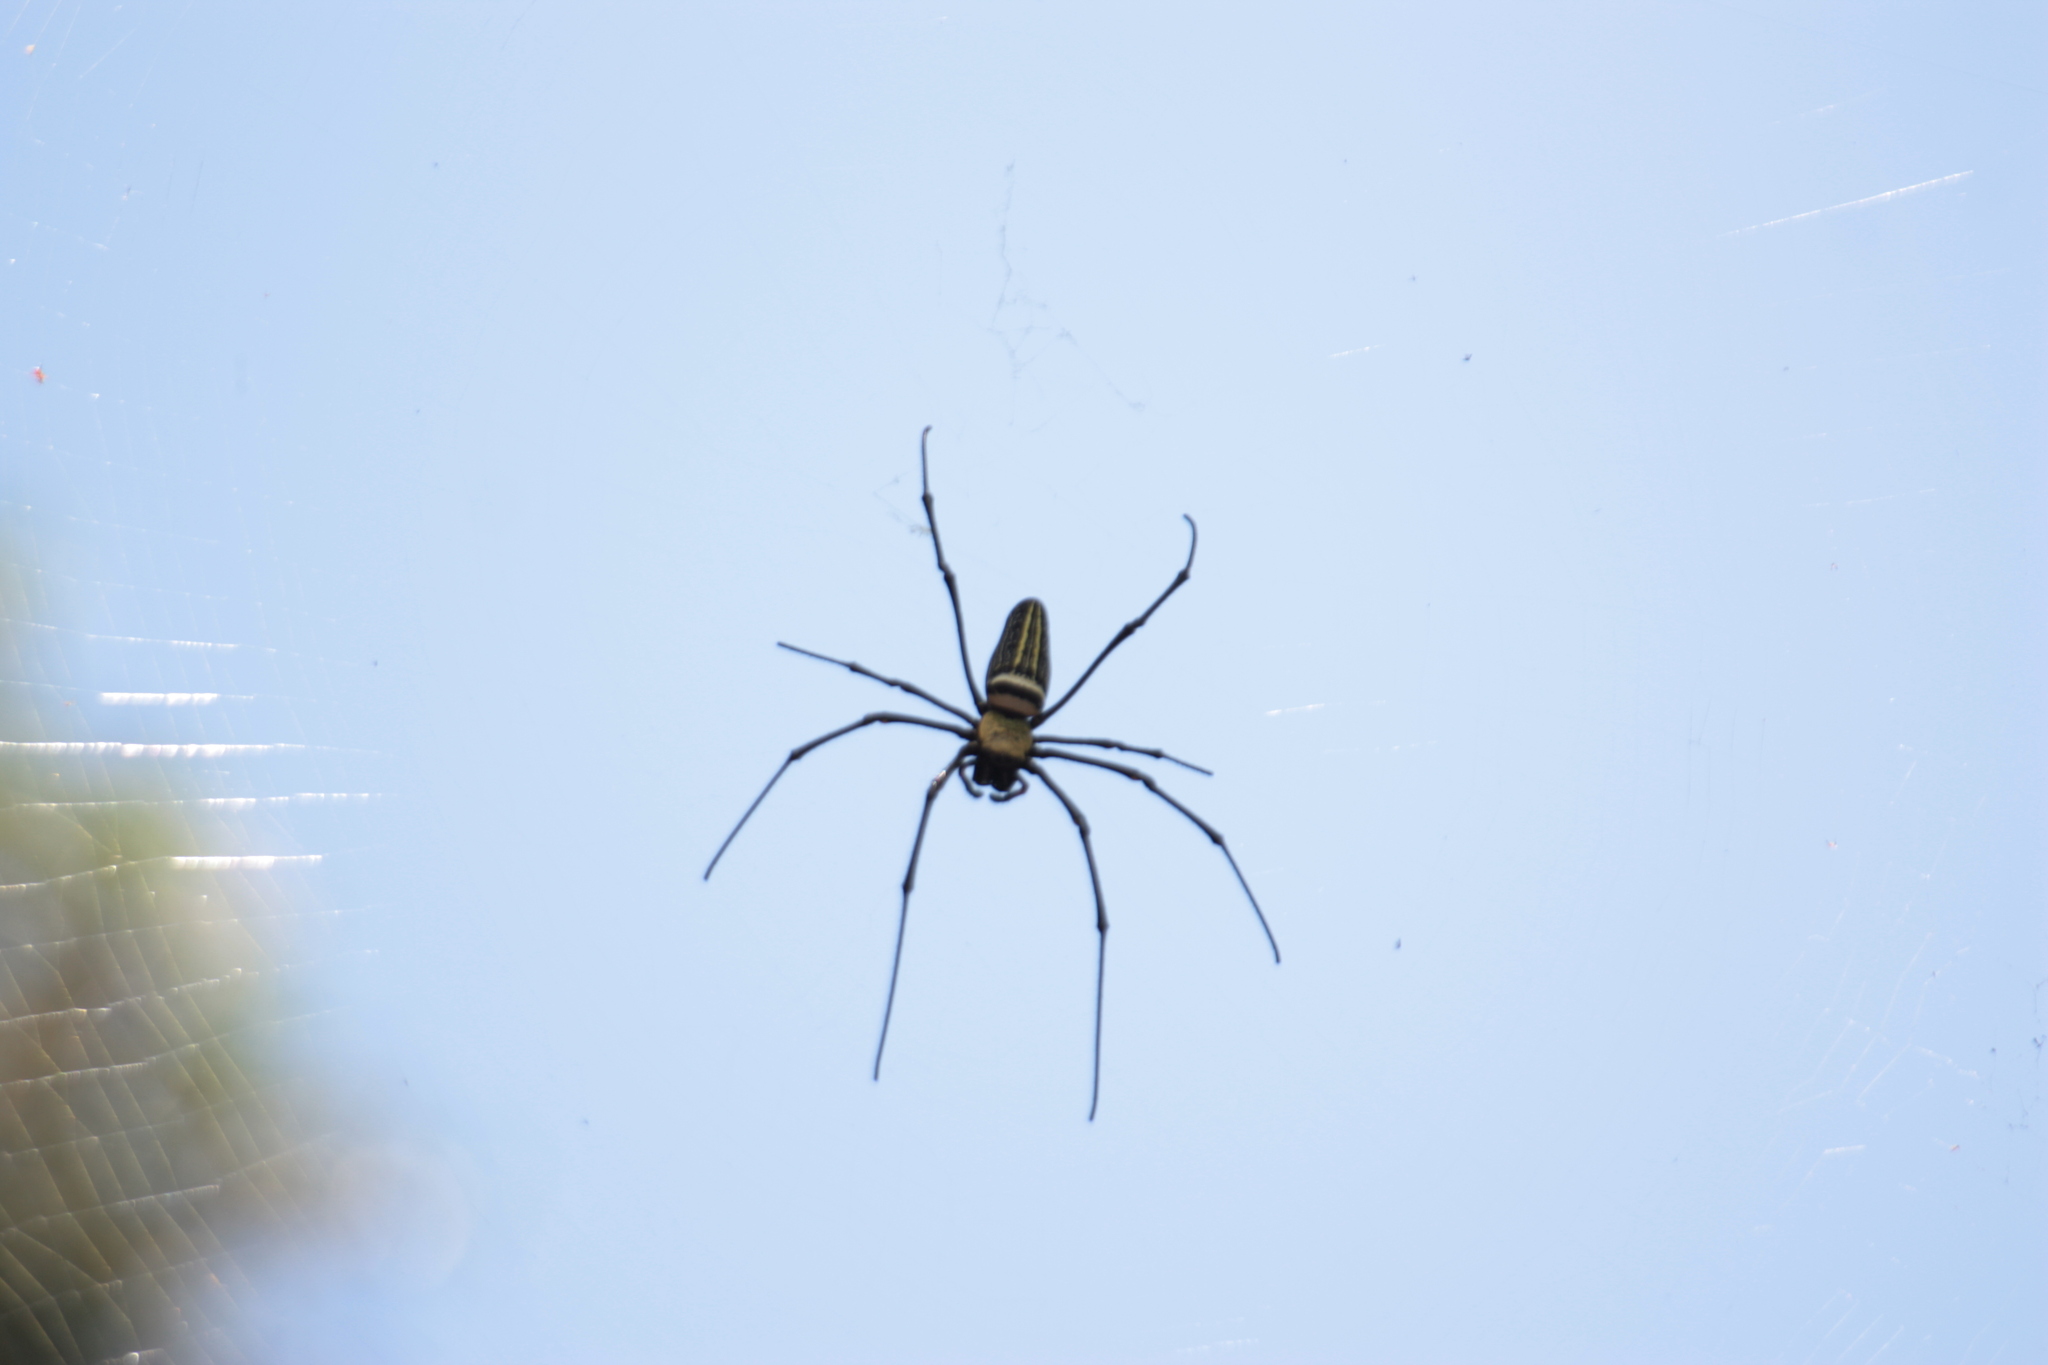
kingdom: Animalia
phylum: Arthropoda
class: Arachnida
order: Araneae
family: Araneidae
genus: Nephila
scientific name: Nephila pilipes
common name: Giant golden orb weaver
